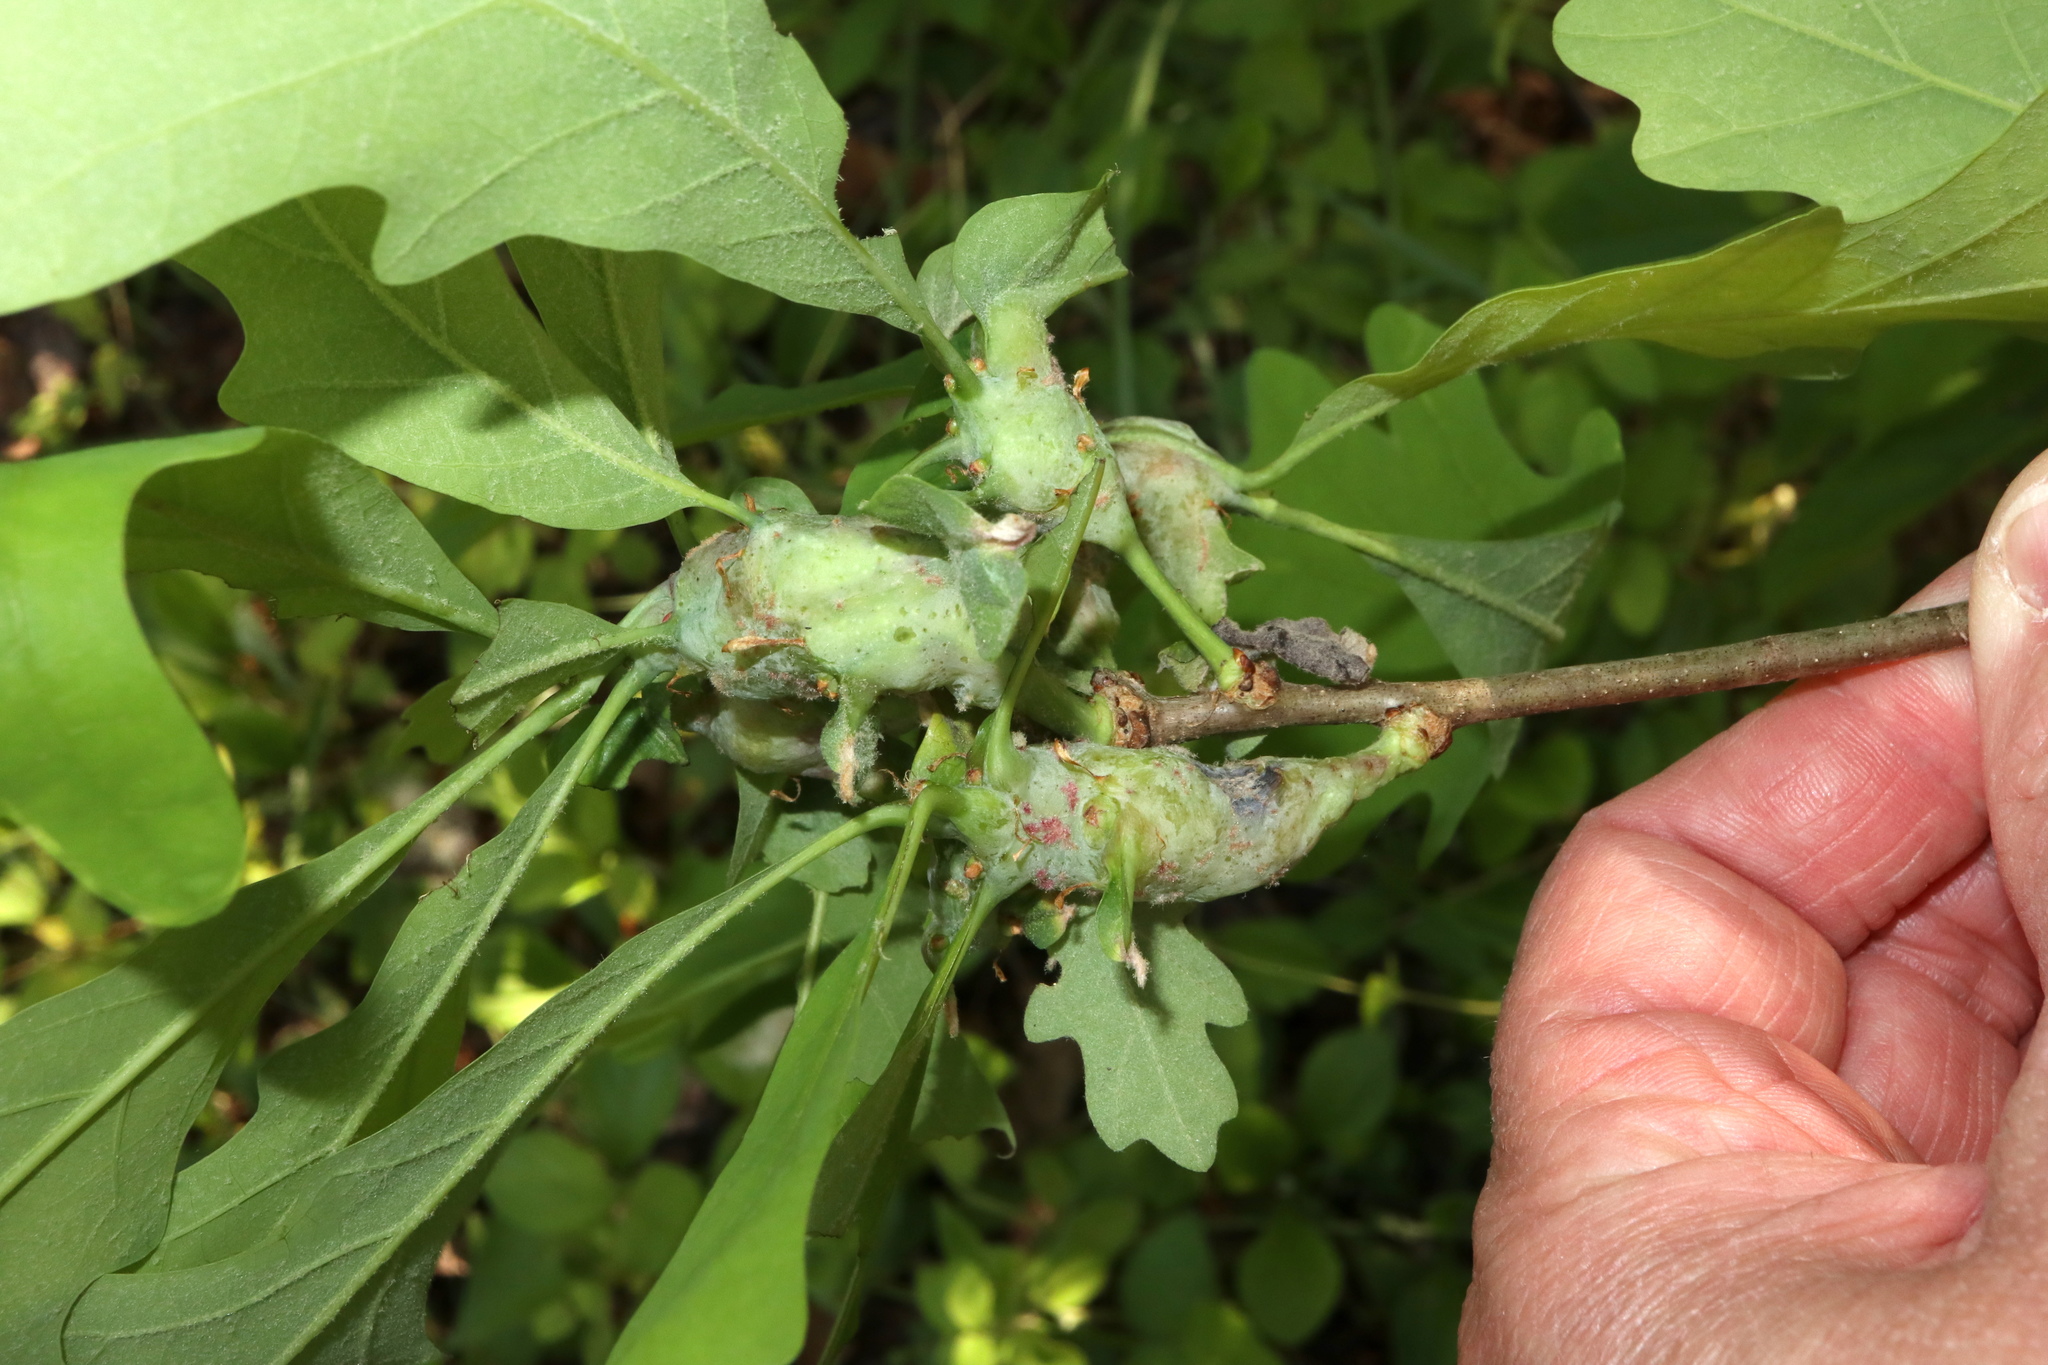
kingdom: Animalia
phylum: Arthropoda
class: Insecta
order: Hymenoptera
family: Cynipidae
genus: Neuroterus
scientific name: Neuroterus quercusbaccarum
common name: Common spangle gall
